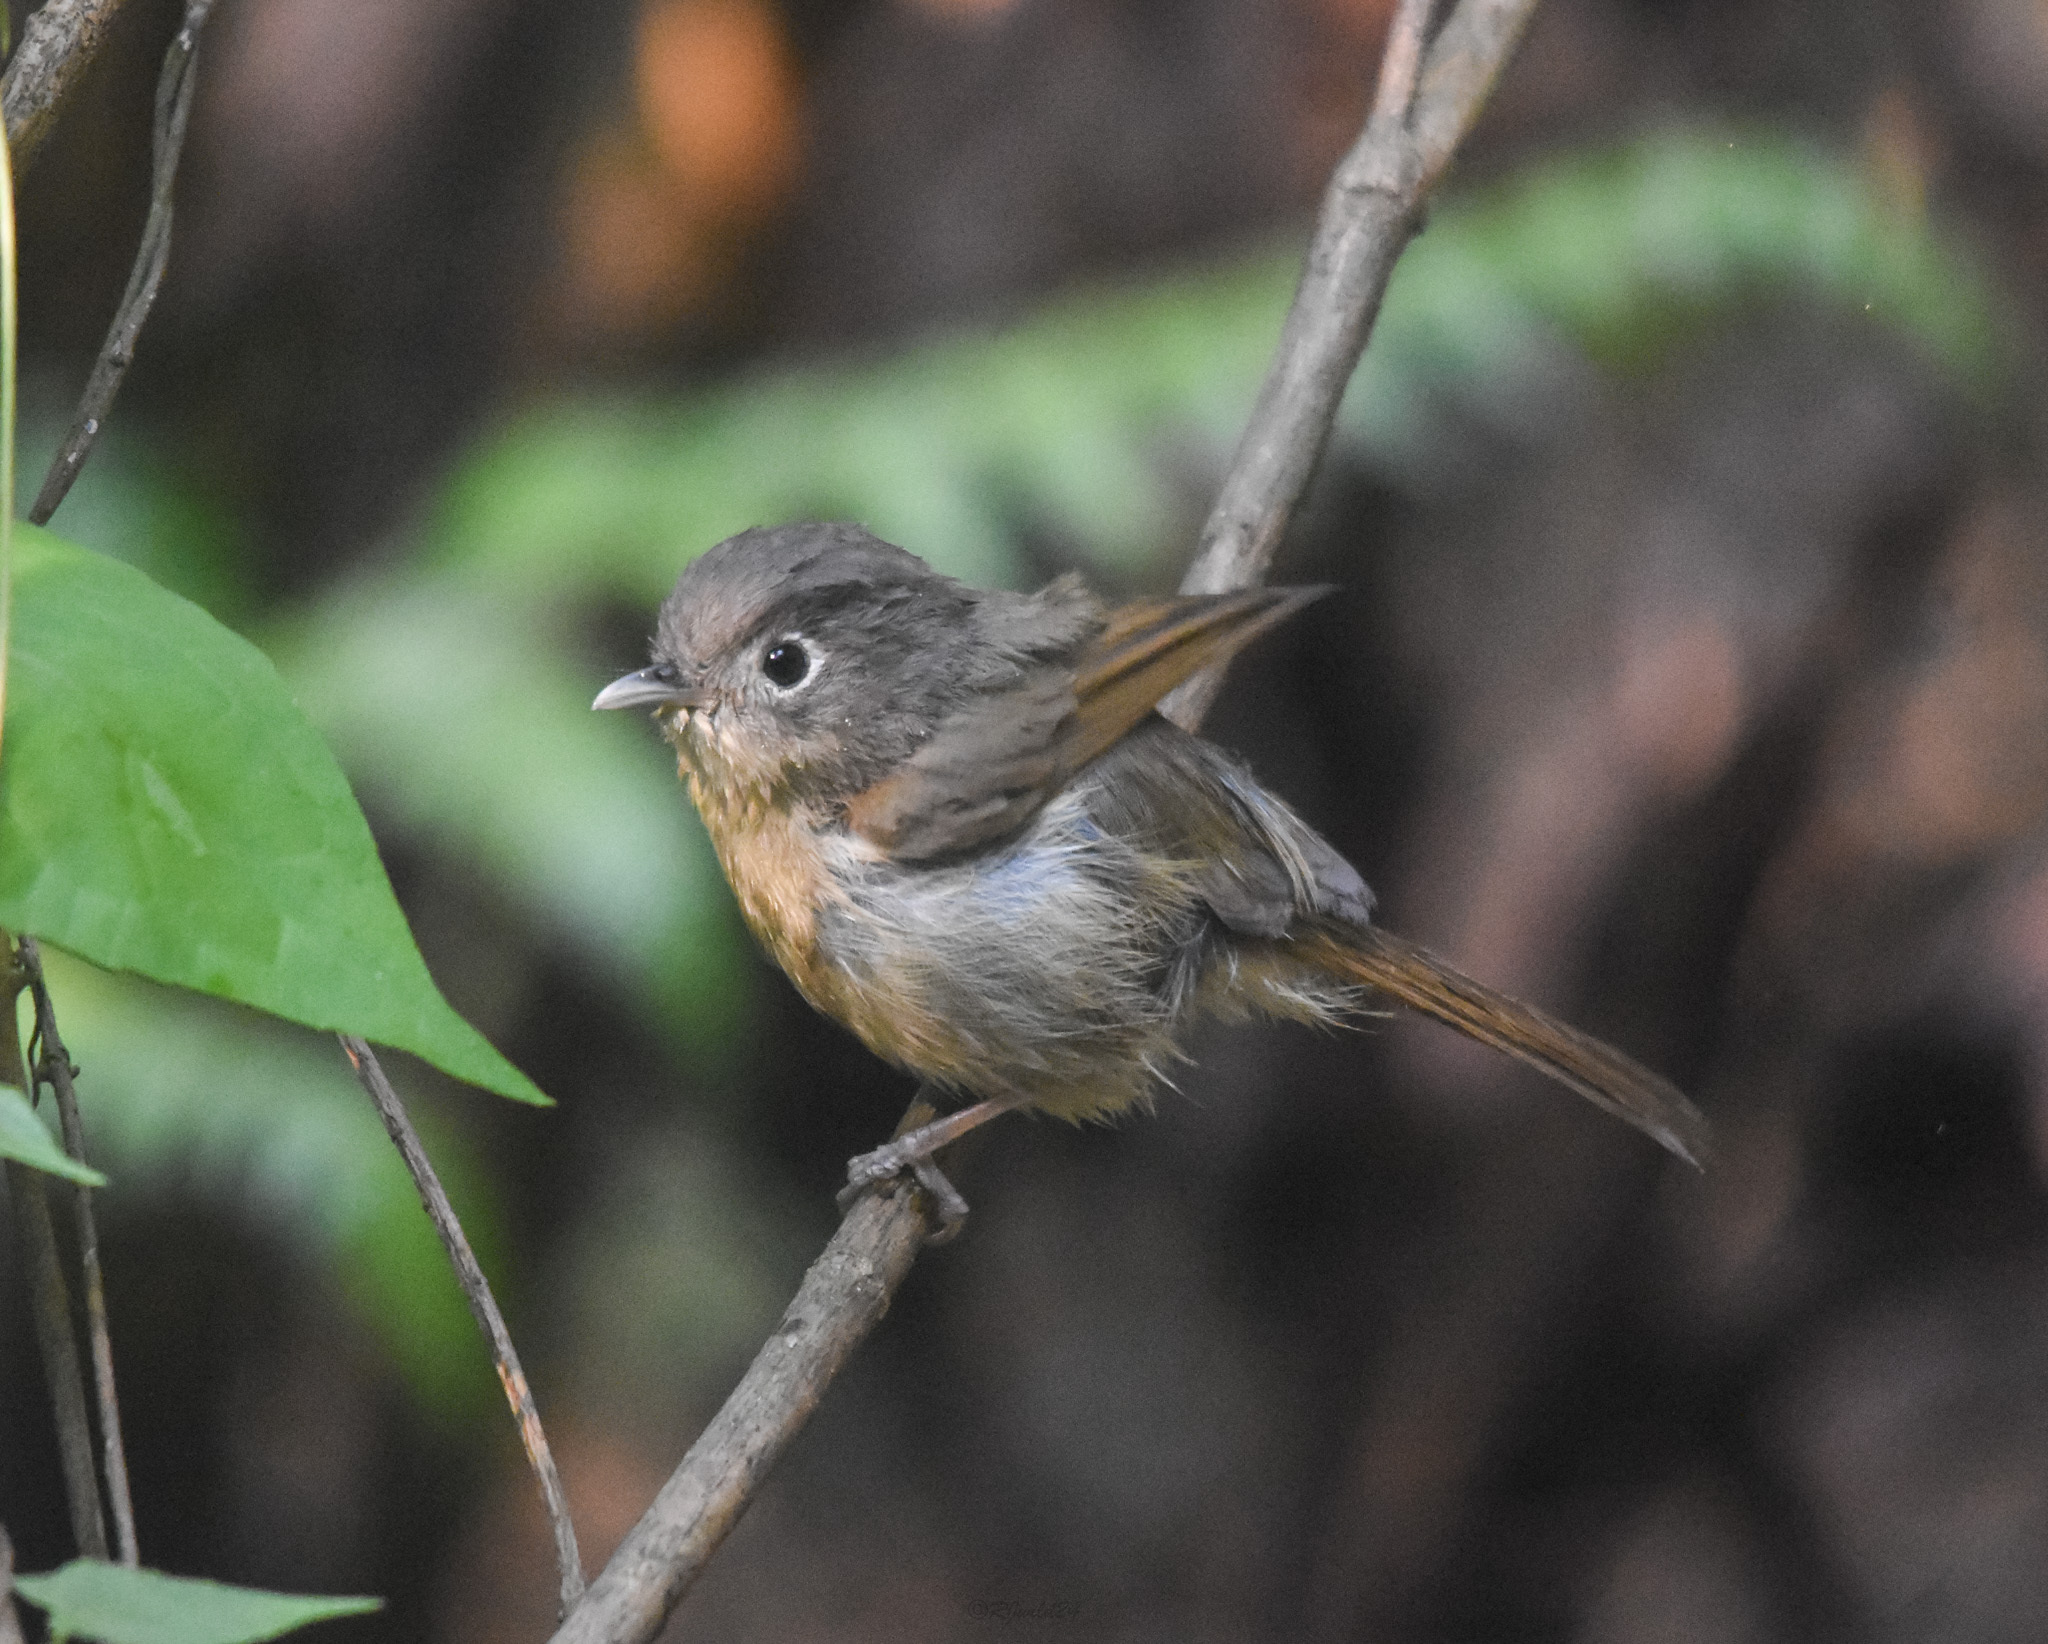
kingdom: Animalia
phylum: Chordata
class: Aves
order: Passeriformes
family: Pellorneidae
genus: Alcippe
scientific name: Alcippe nipalensis
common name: Nepal fulvetta
